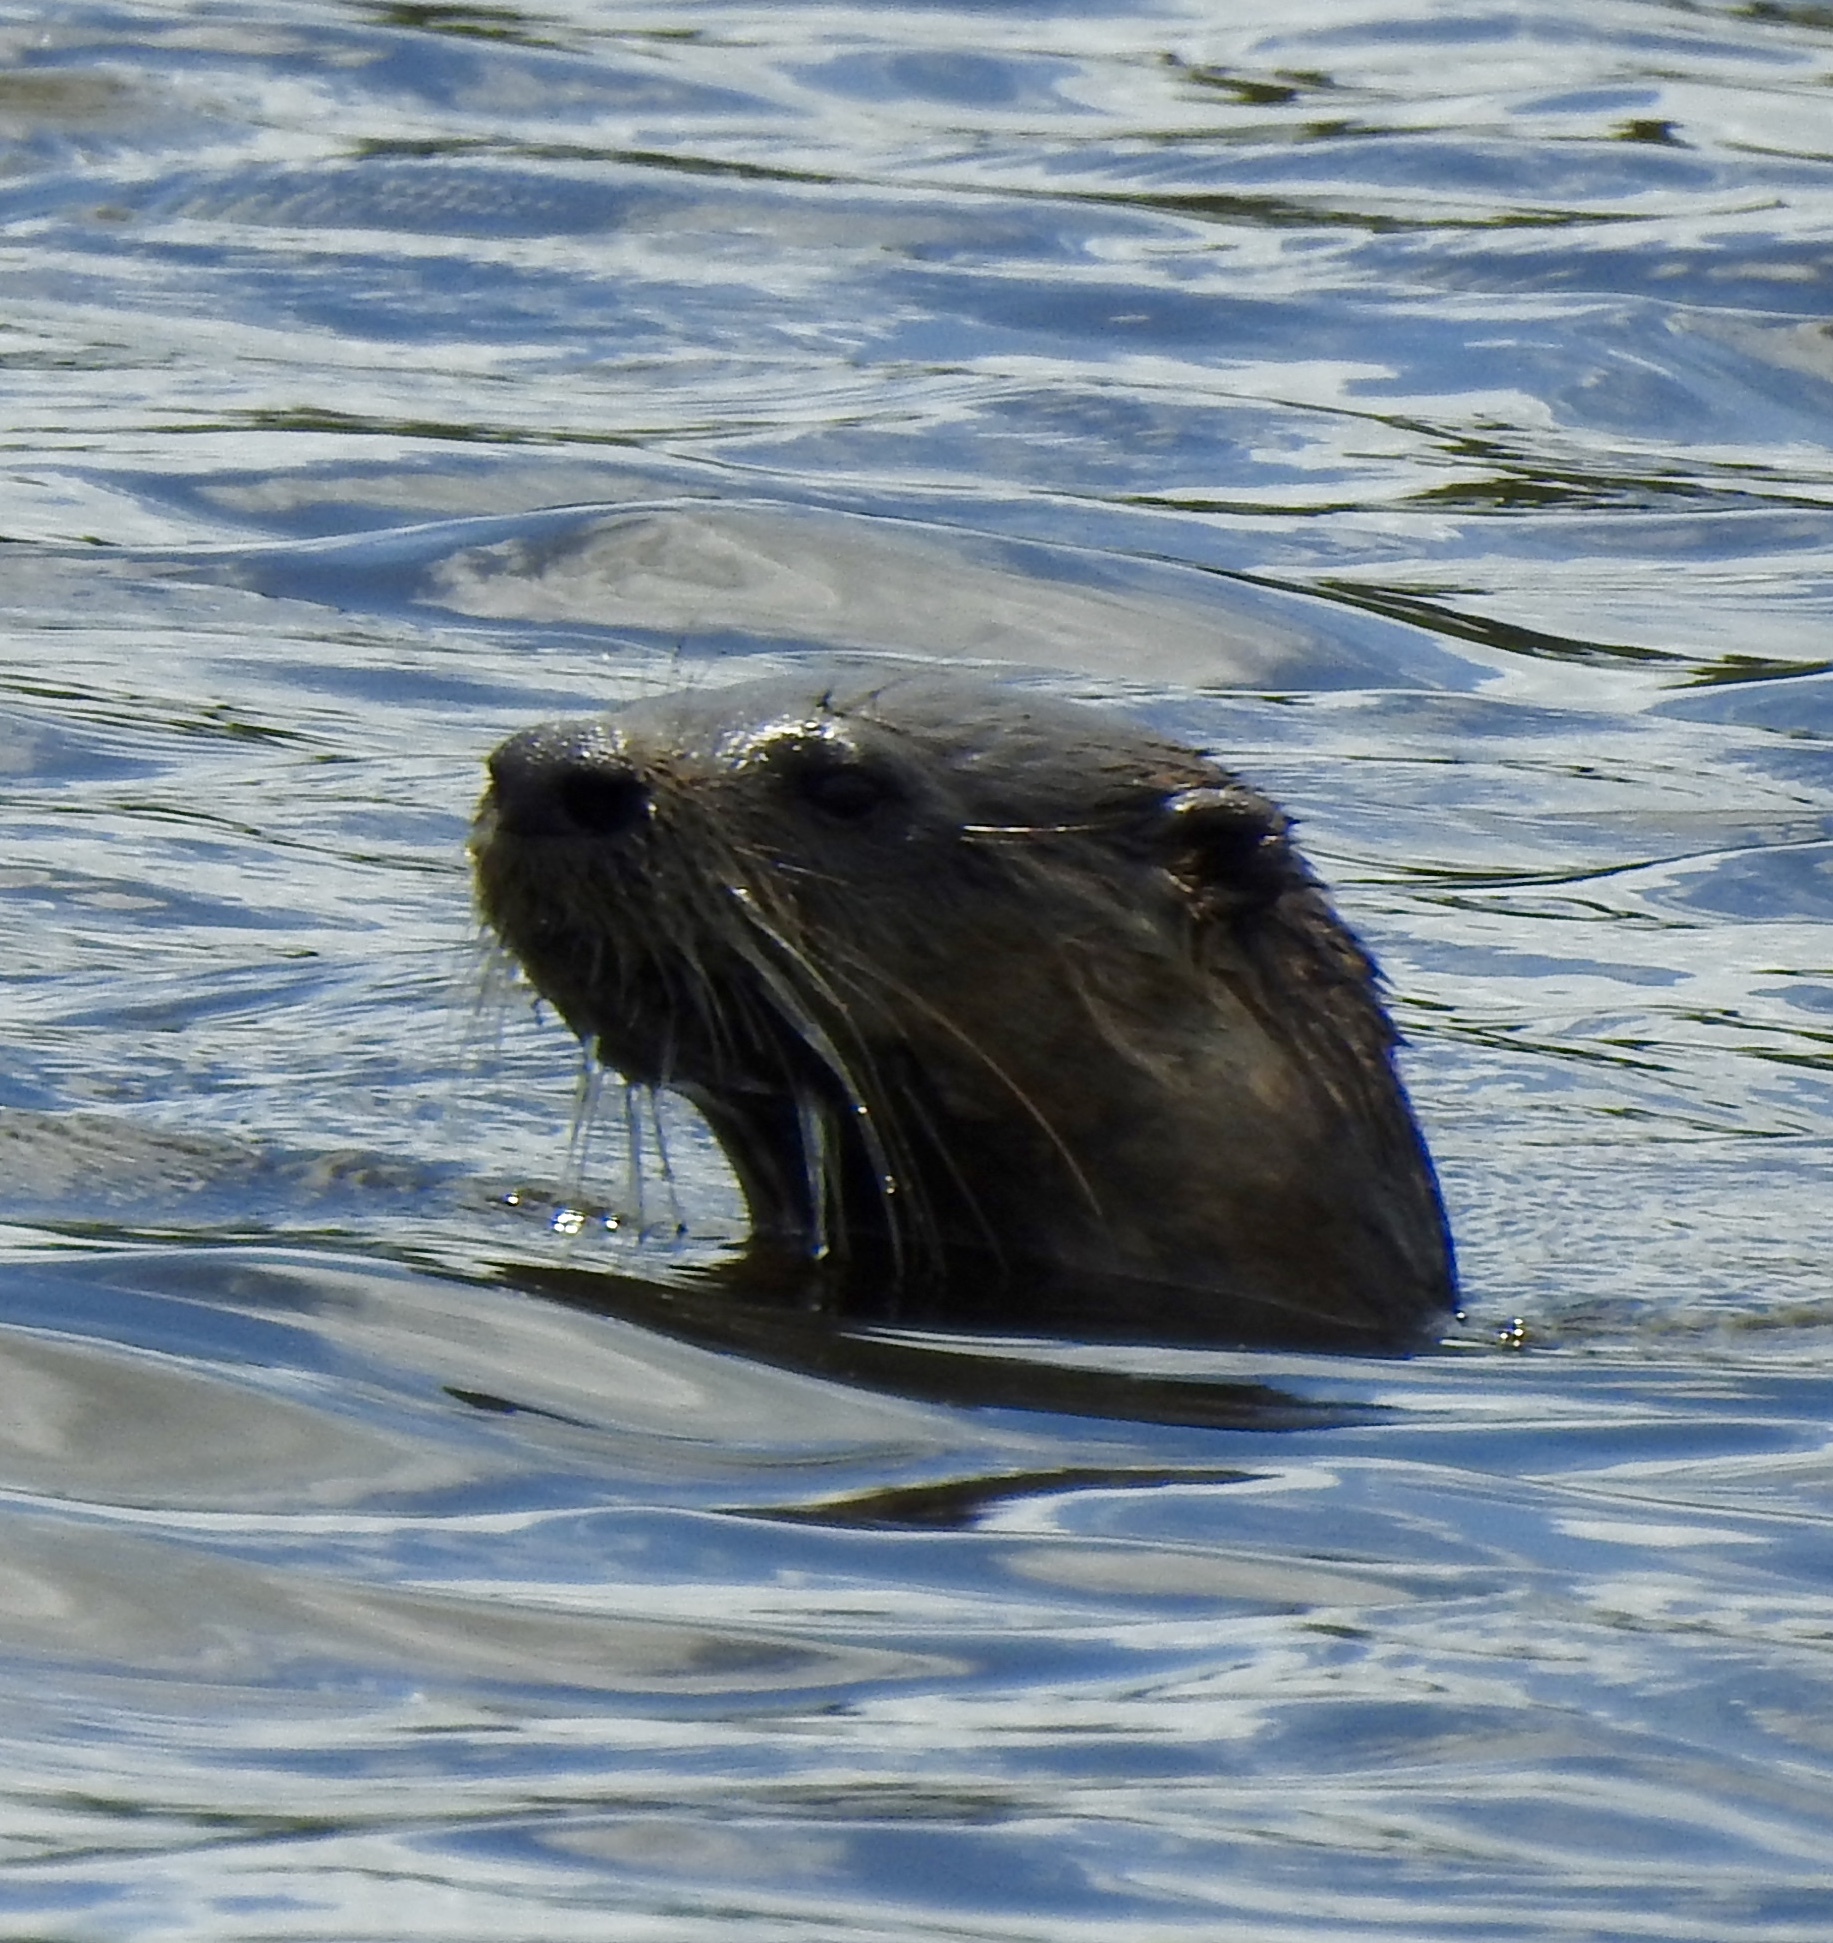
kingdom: Animalia
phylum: Chordata
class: Mammalia
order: Carnivora
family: Mustelidae
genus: Lontra
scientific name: Lontra canadensis
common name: North american river otter
